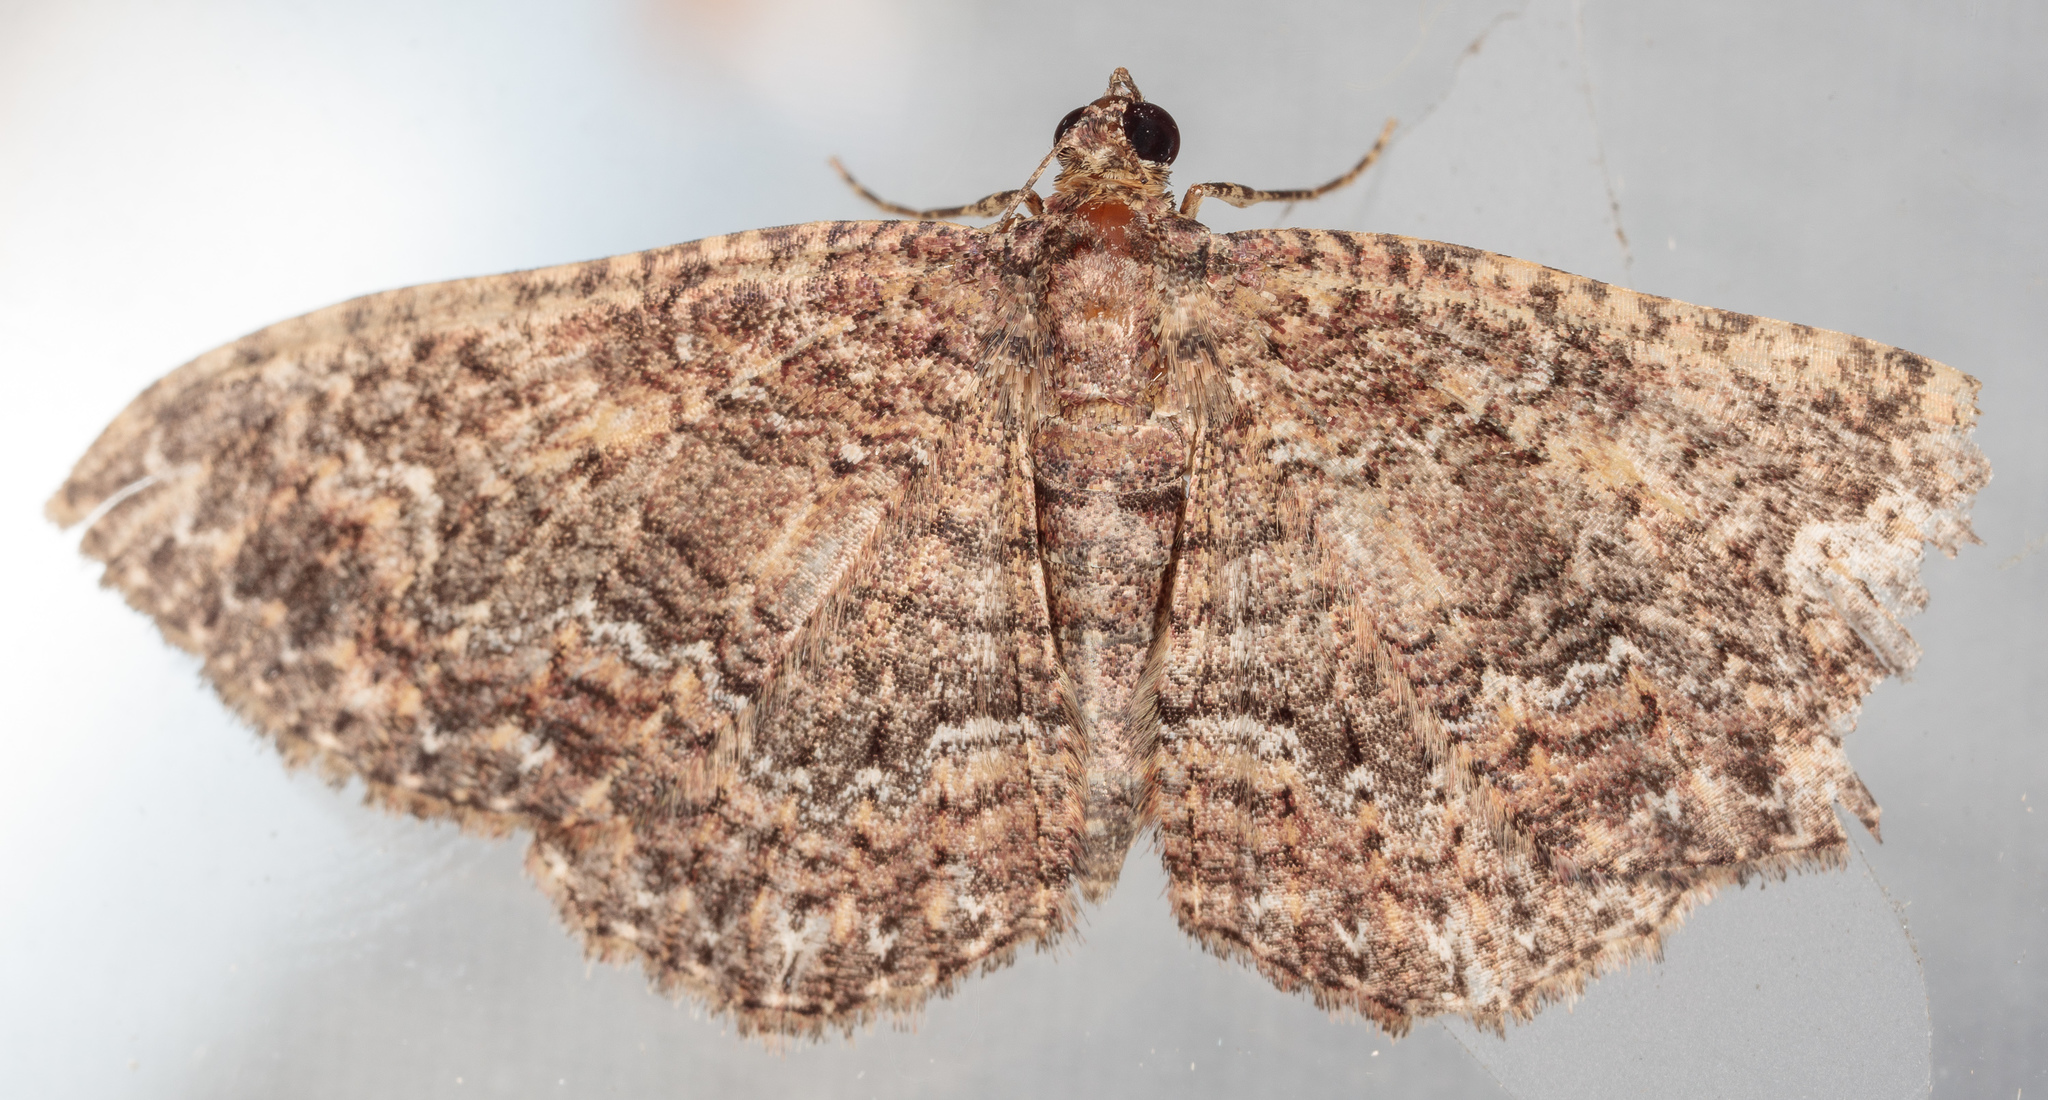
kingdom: Animalia
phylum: Arthropoda
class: Insecta
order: Lepidoptera
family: Geometridae
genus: Disclisioprocta
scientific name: Disclisioprocta stellata
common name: Somber carpet
